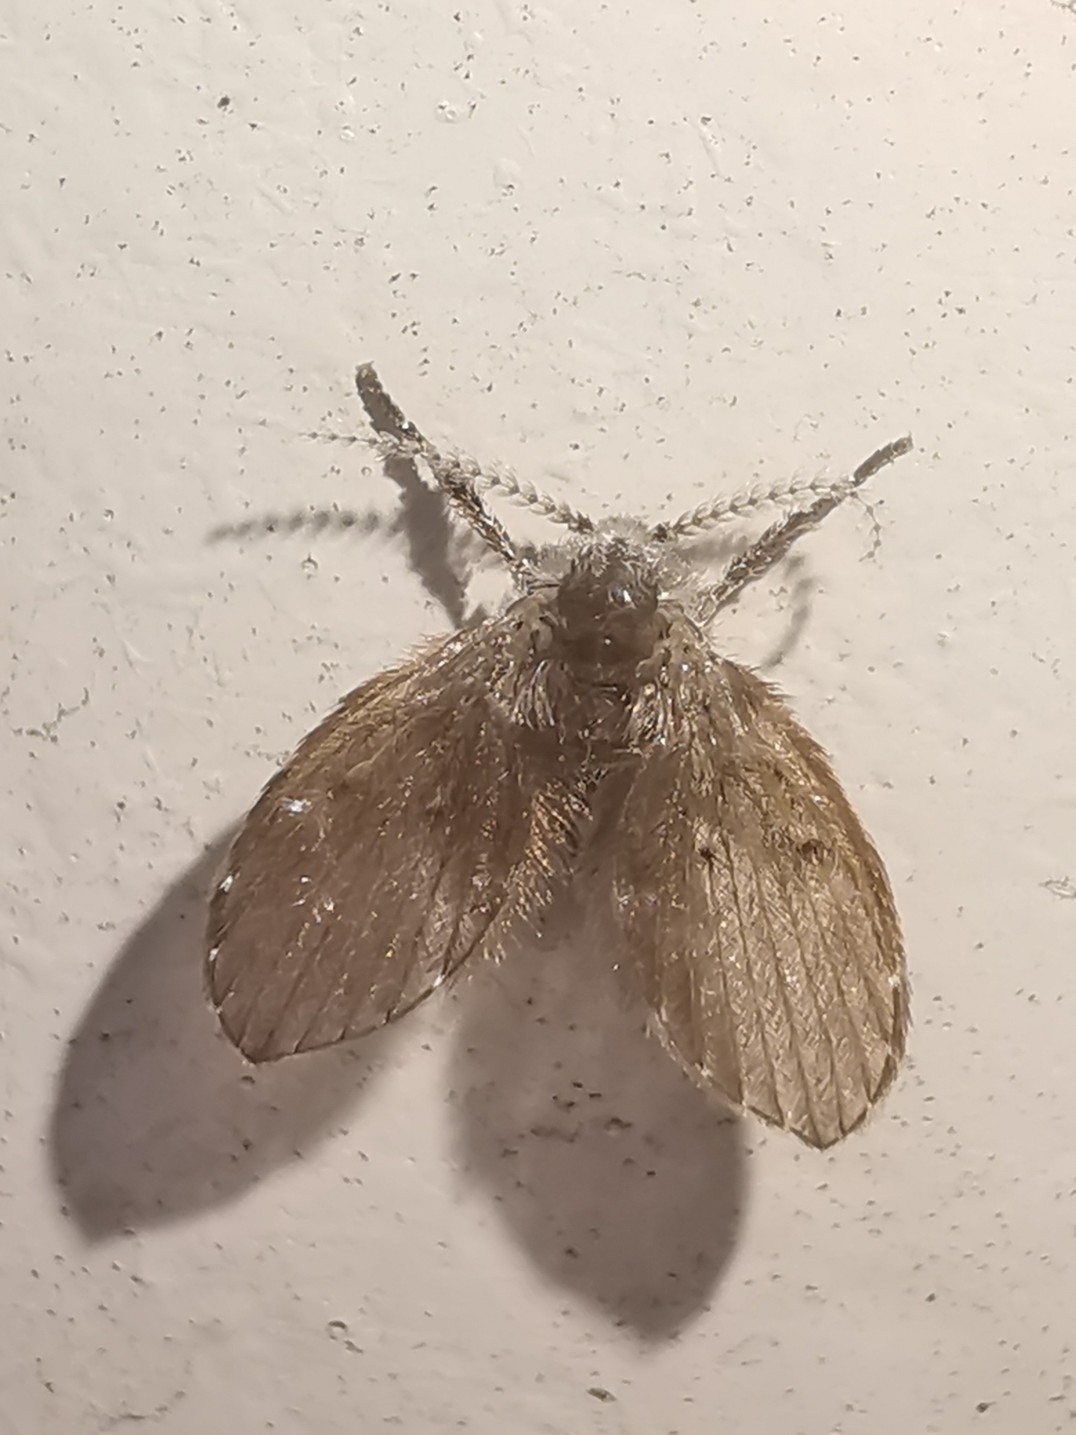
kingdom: Animalia
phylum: Arthropoda
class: Insecta
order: Diptera
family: Psychodidae
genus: Clogmia
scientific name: Clogmia albipunctatus
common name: White-spotted moth fly
